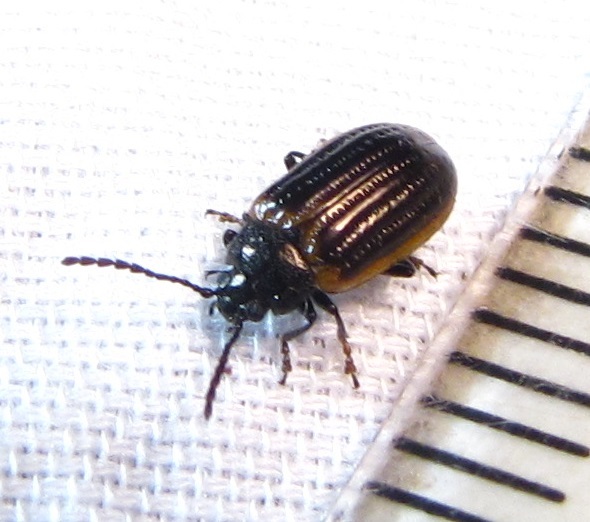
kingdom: Animalia
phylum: Arthropoda
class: Insecta
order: Coleoptera
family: Chrysomelidae
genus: Microtheca
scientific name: Microtheca ochroloma
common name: Leaf beetle
